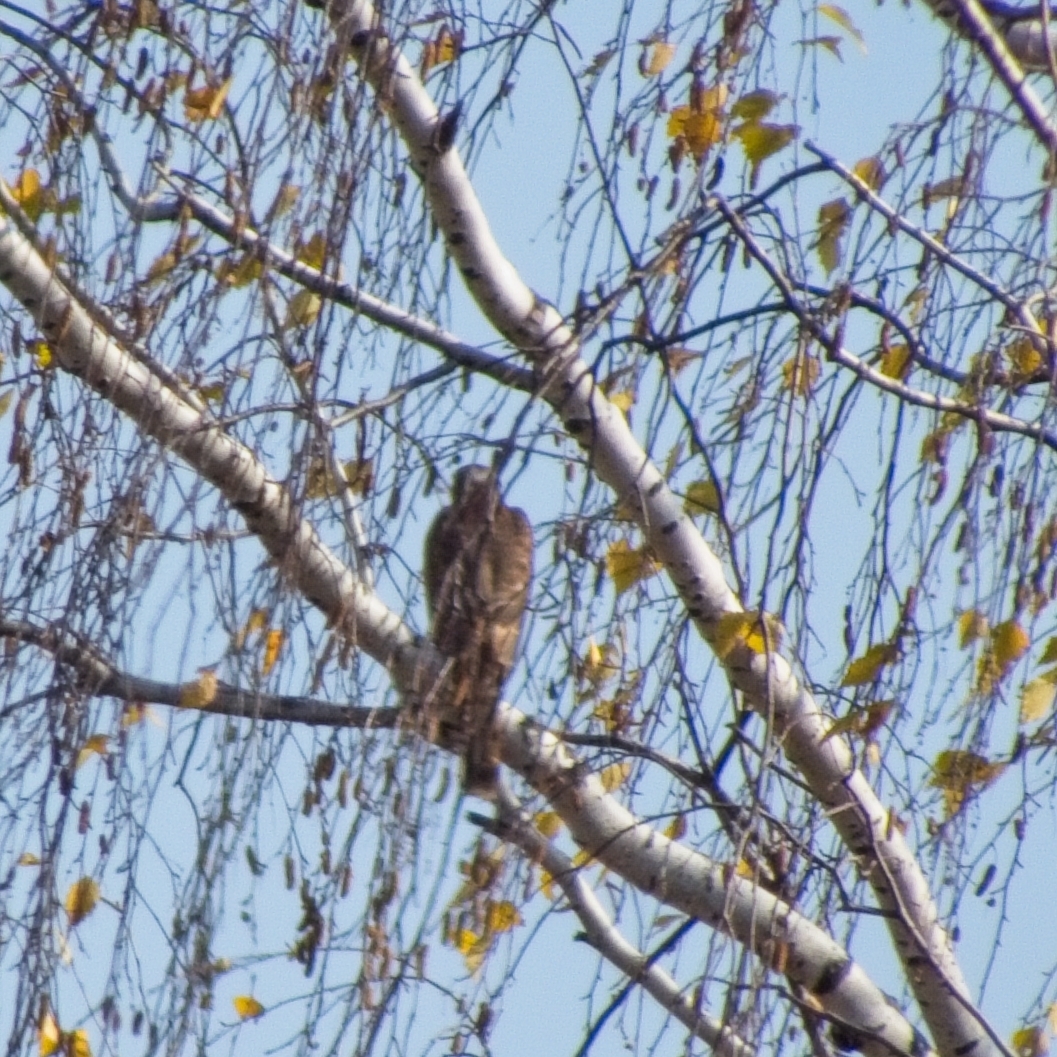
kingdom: Animalia
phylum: Chordata
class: Aves
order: Accipitriformes
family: Accipitridae
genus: Accipiter
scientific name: Accipiter nisus
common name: Eurasian sparrowhawk
